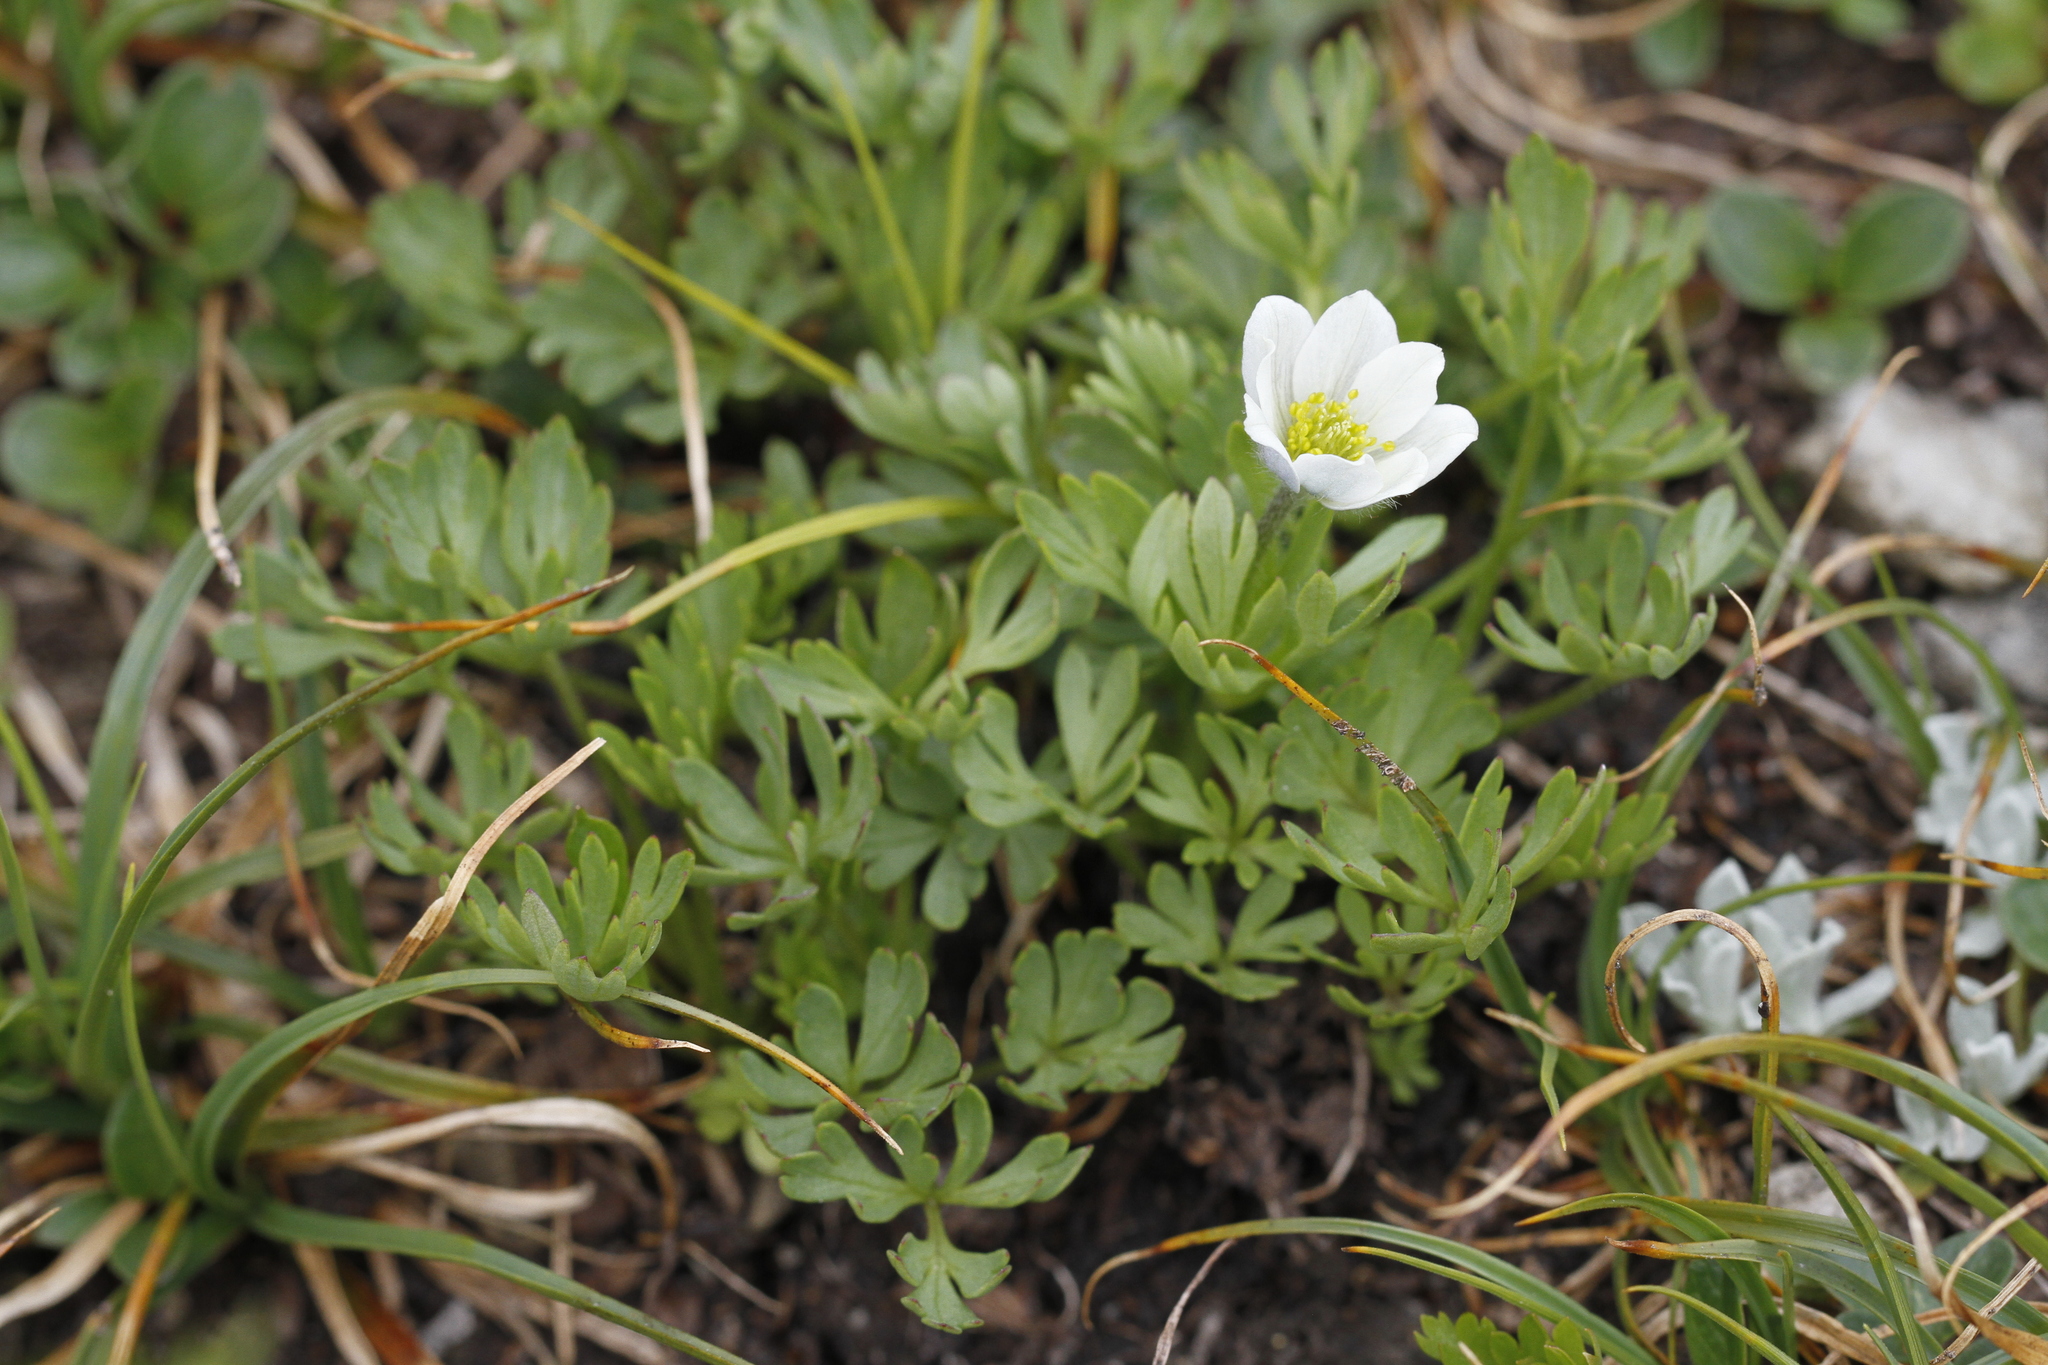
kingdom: Plantae
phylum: Tracheophyta
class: Magnoliopsida
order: Ranunculales
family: Ranunculaceae
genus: Anemone
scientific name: Anemone lithophila
